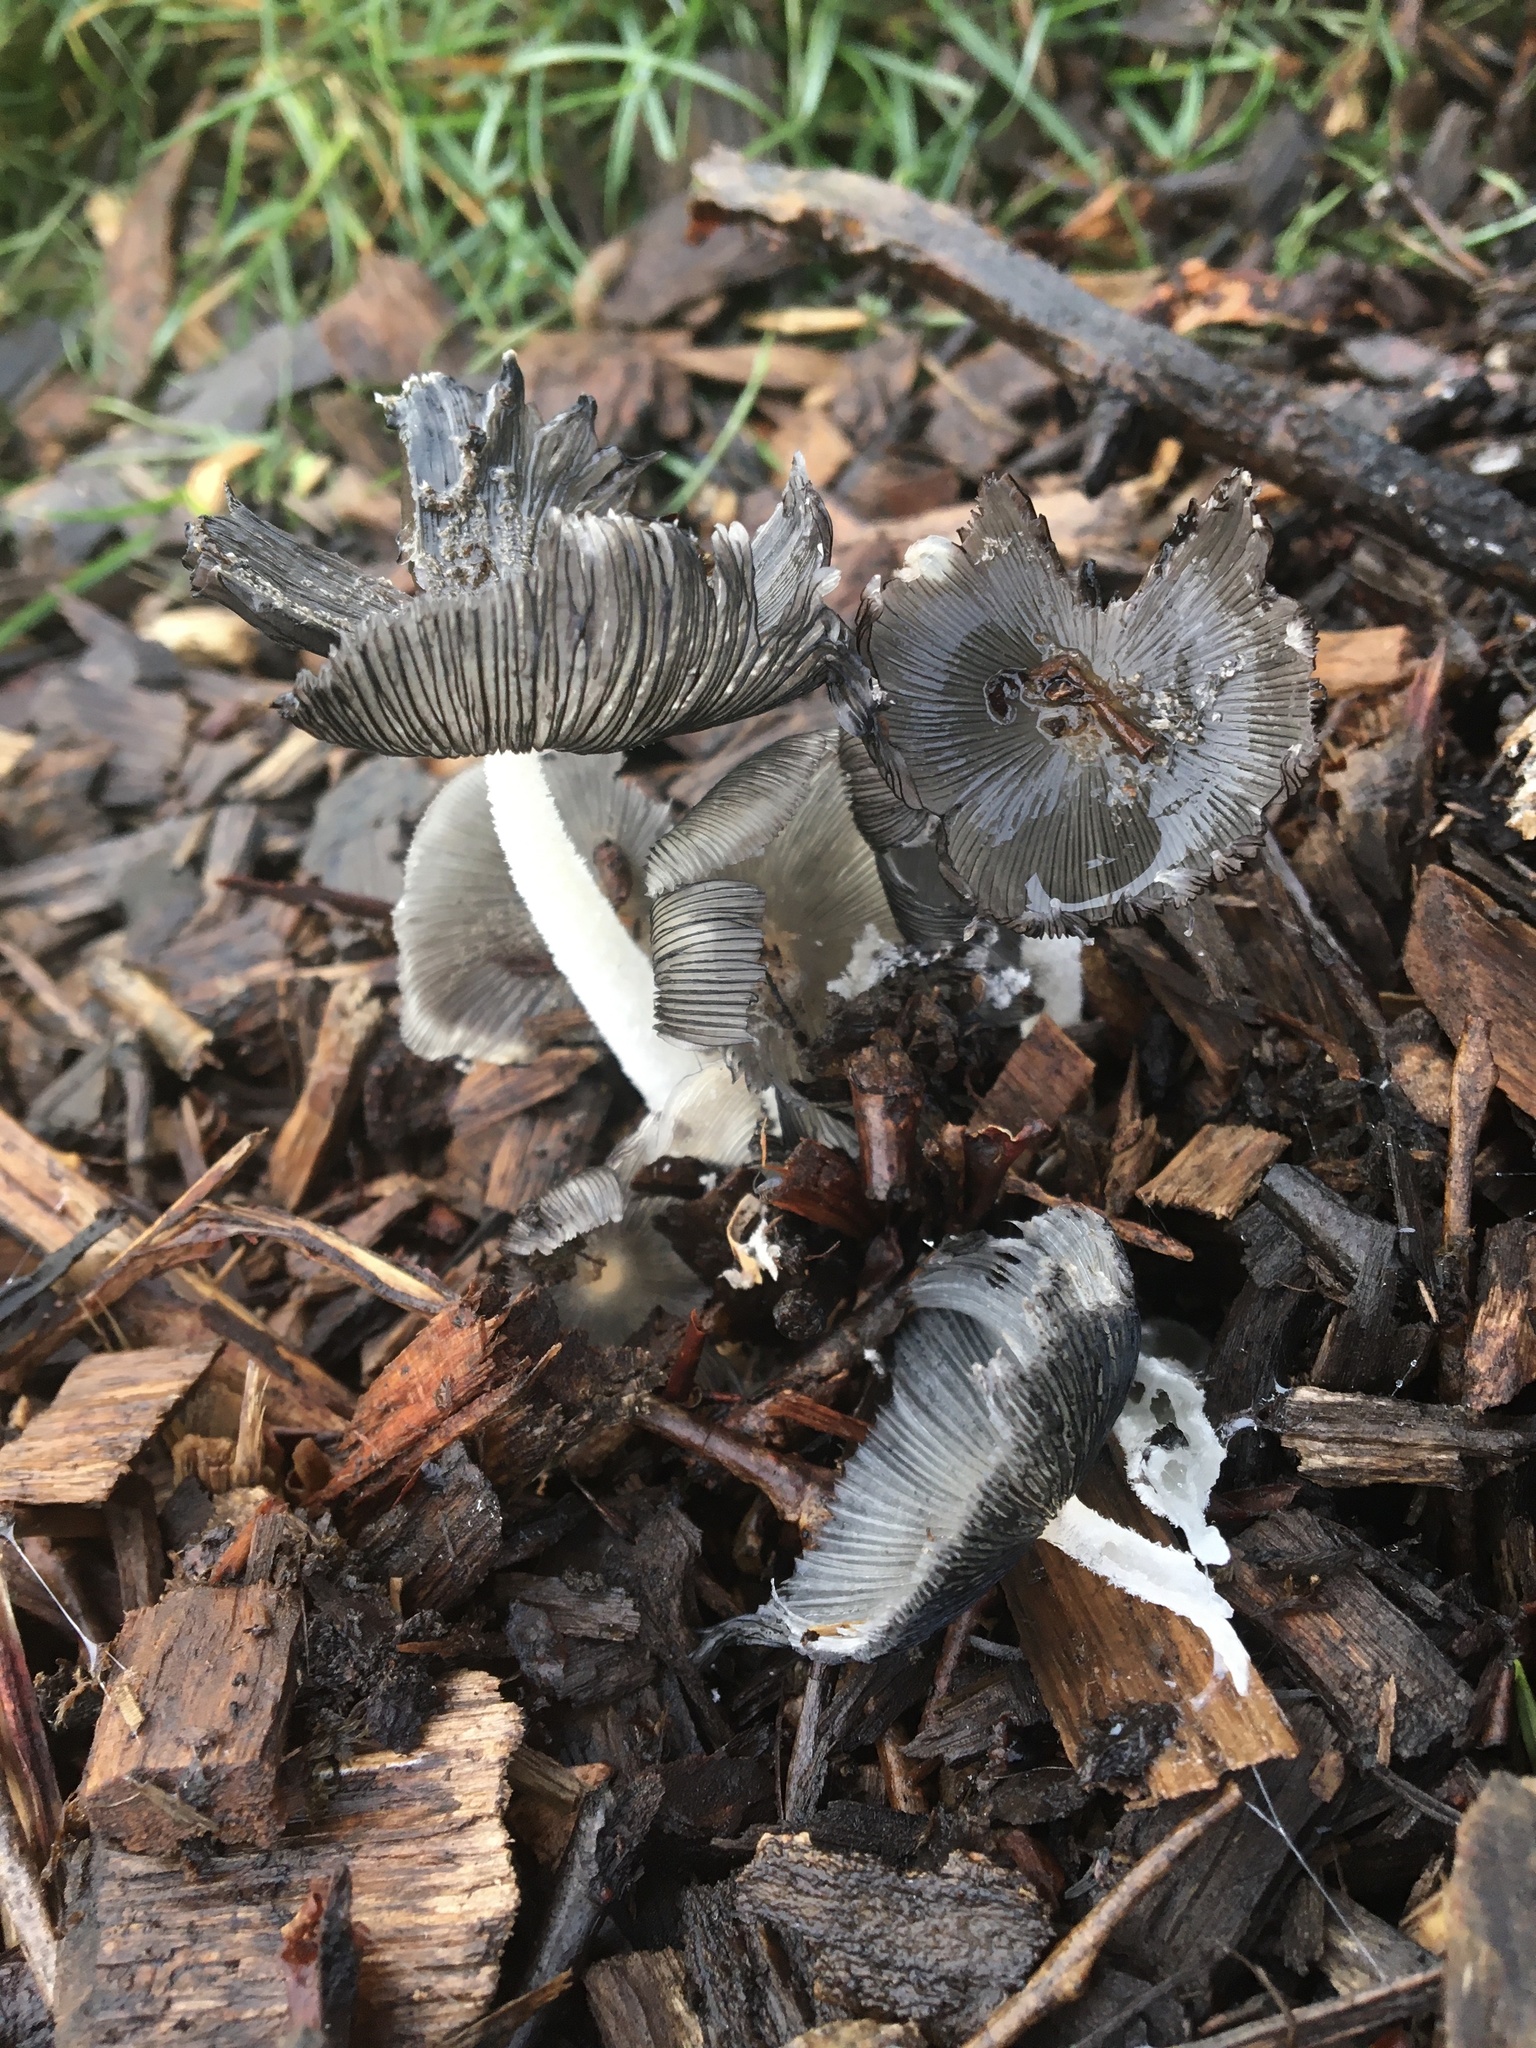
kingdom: Fungi
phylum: Basidiomycota
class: Agaricomycetes
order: Agaricales
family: Psathyrellaceae
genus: Coprinopsis
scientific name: Coprinopsis lagopus
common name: Hare'sfoot inkcap
